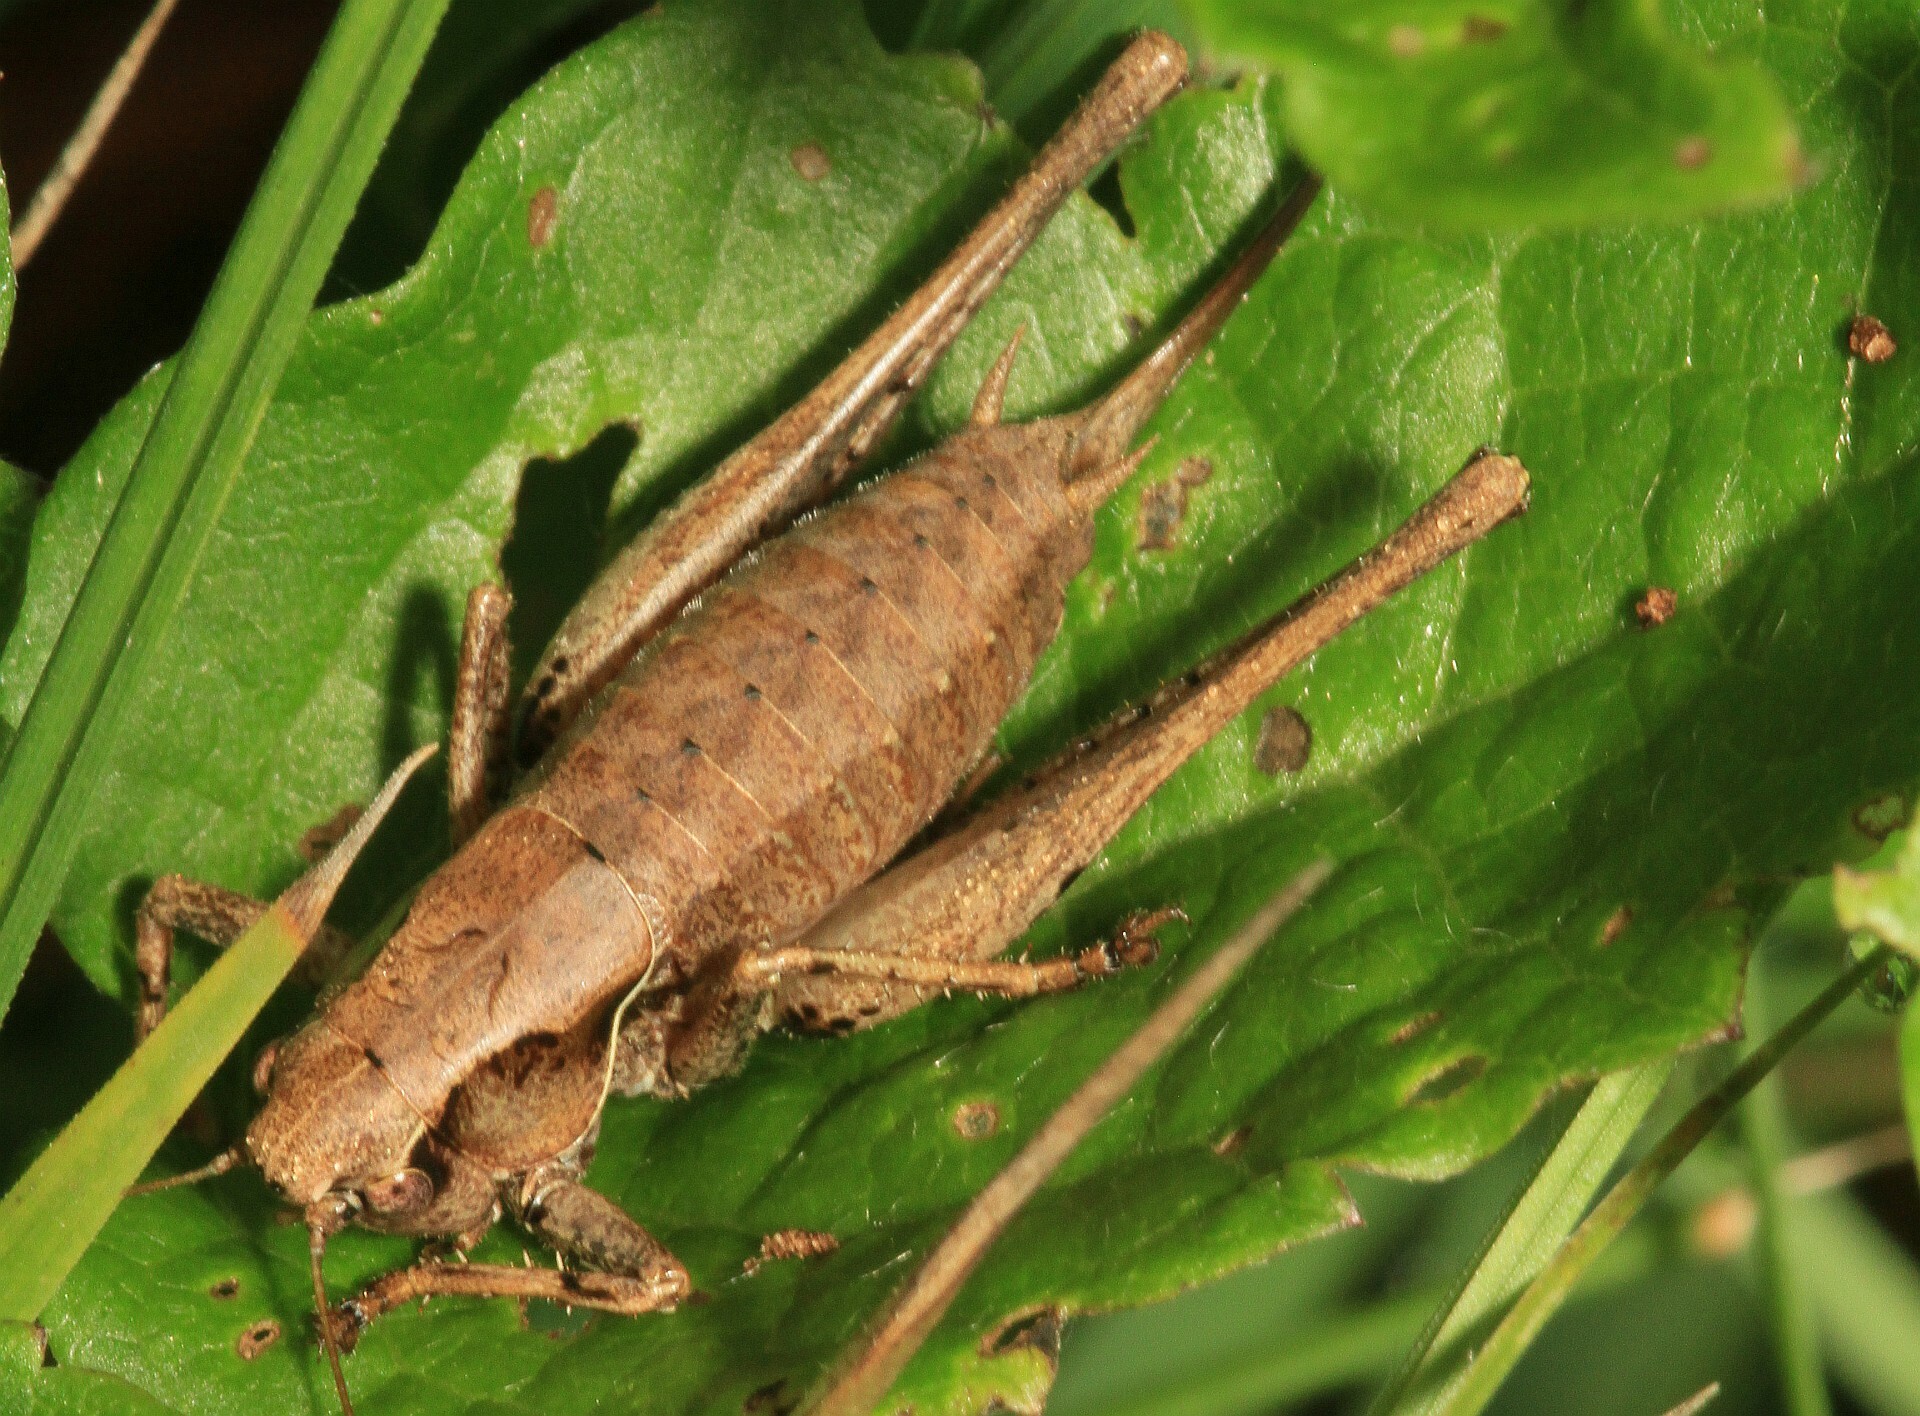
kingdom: Animalia
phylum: Arthropoda
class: Insecta
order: Orthoptera
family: Tettigoniidae
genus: Pholidoptera
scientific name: Pholidoptera griseoaptera
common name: Dark bush-cricket
